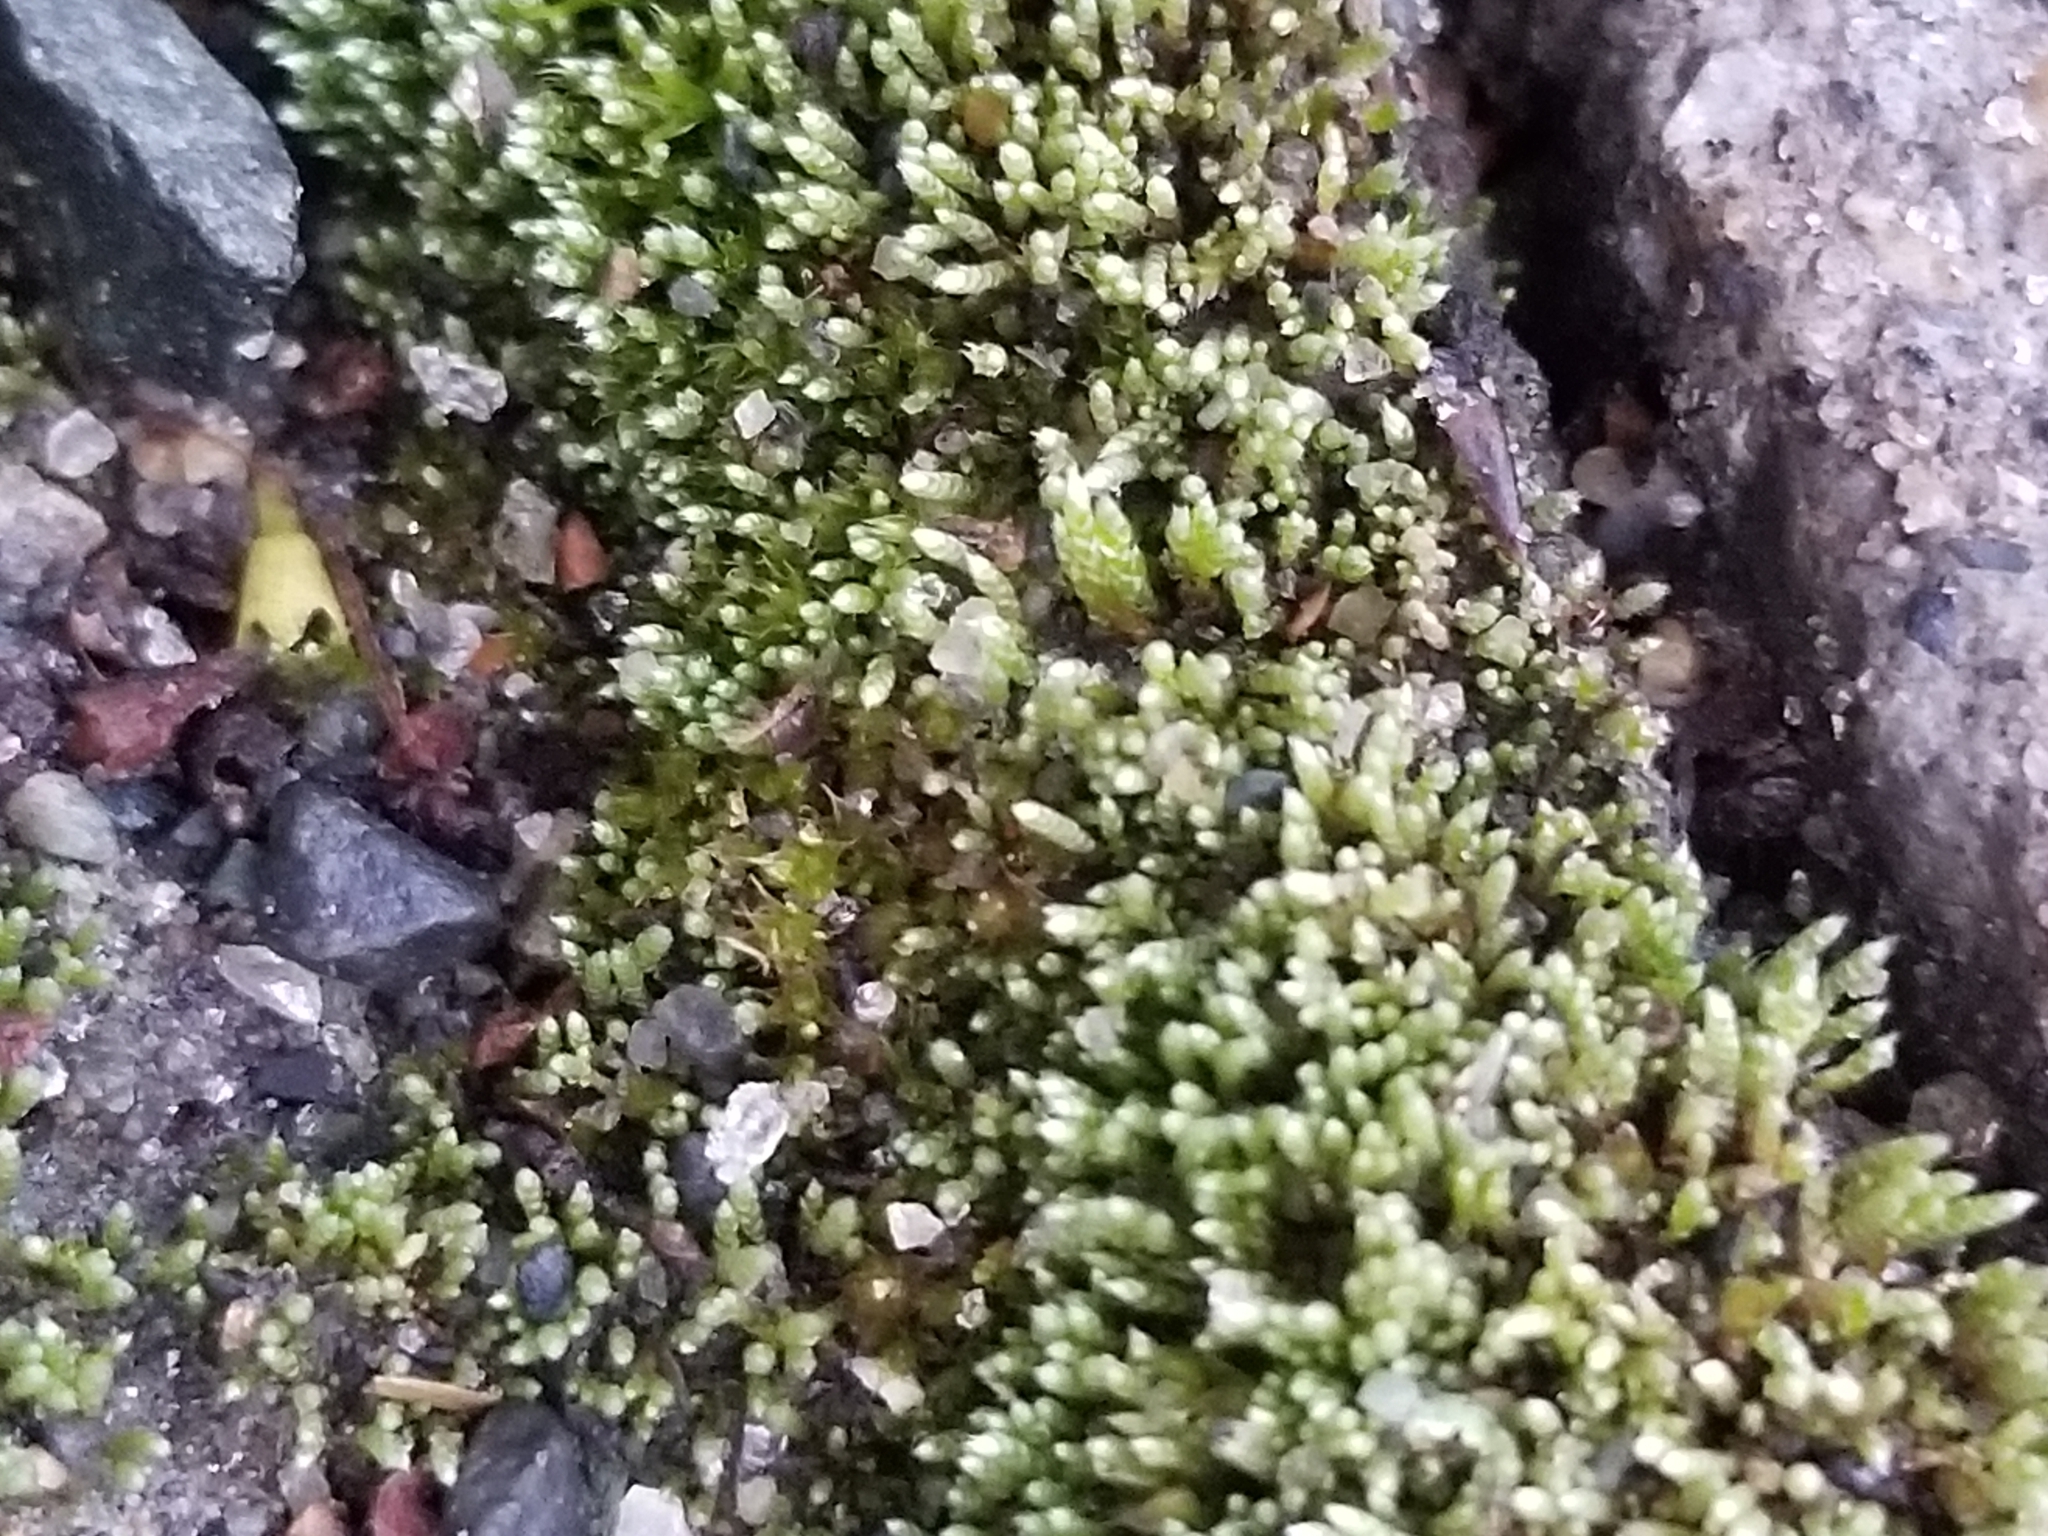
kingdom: Plantae
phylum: Bryophyta
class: Bryopsida
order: Bryales
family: Bryaceae
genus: Bryum
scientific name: Bryum argenteum
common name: Silver-moss
